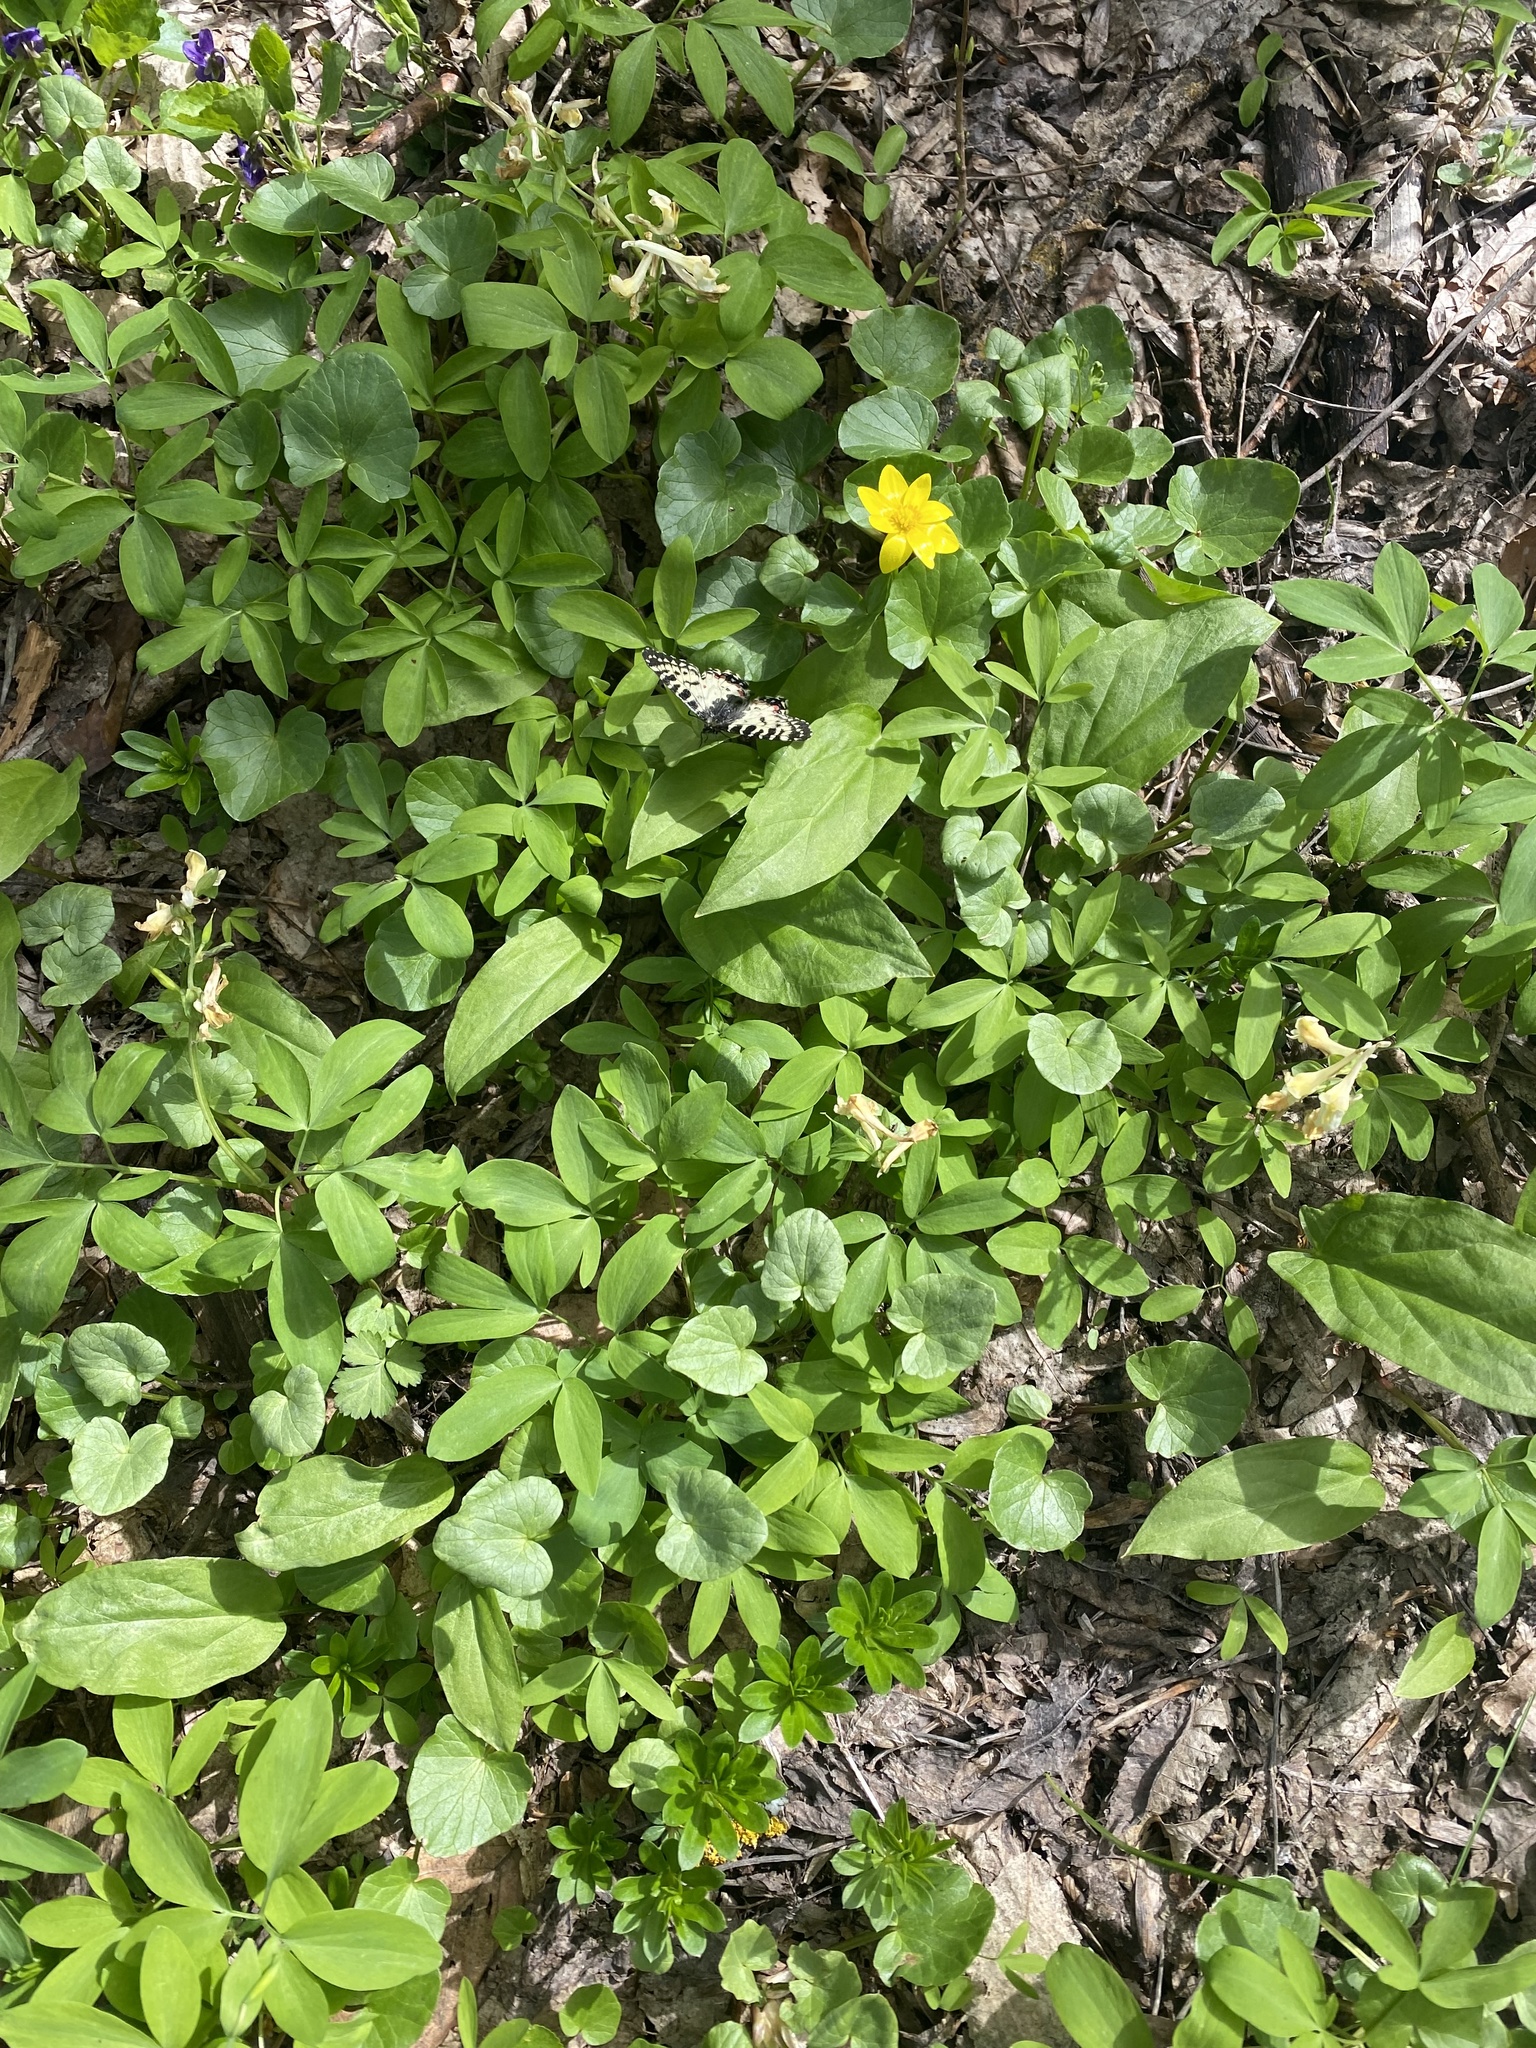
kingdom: Animalia
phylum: Arthropoda
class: Insecta
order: Lepidoptera
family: Papilionidae
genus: Zerynthia
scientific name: Zerynthia caucasica
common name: Caucasian festoon
